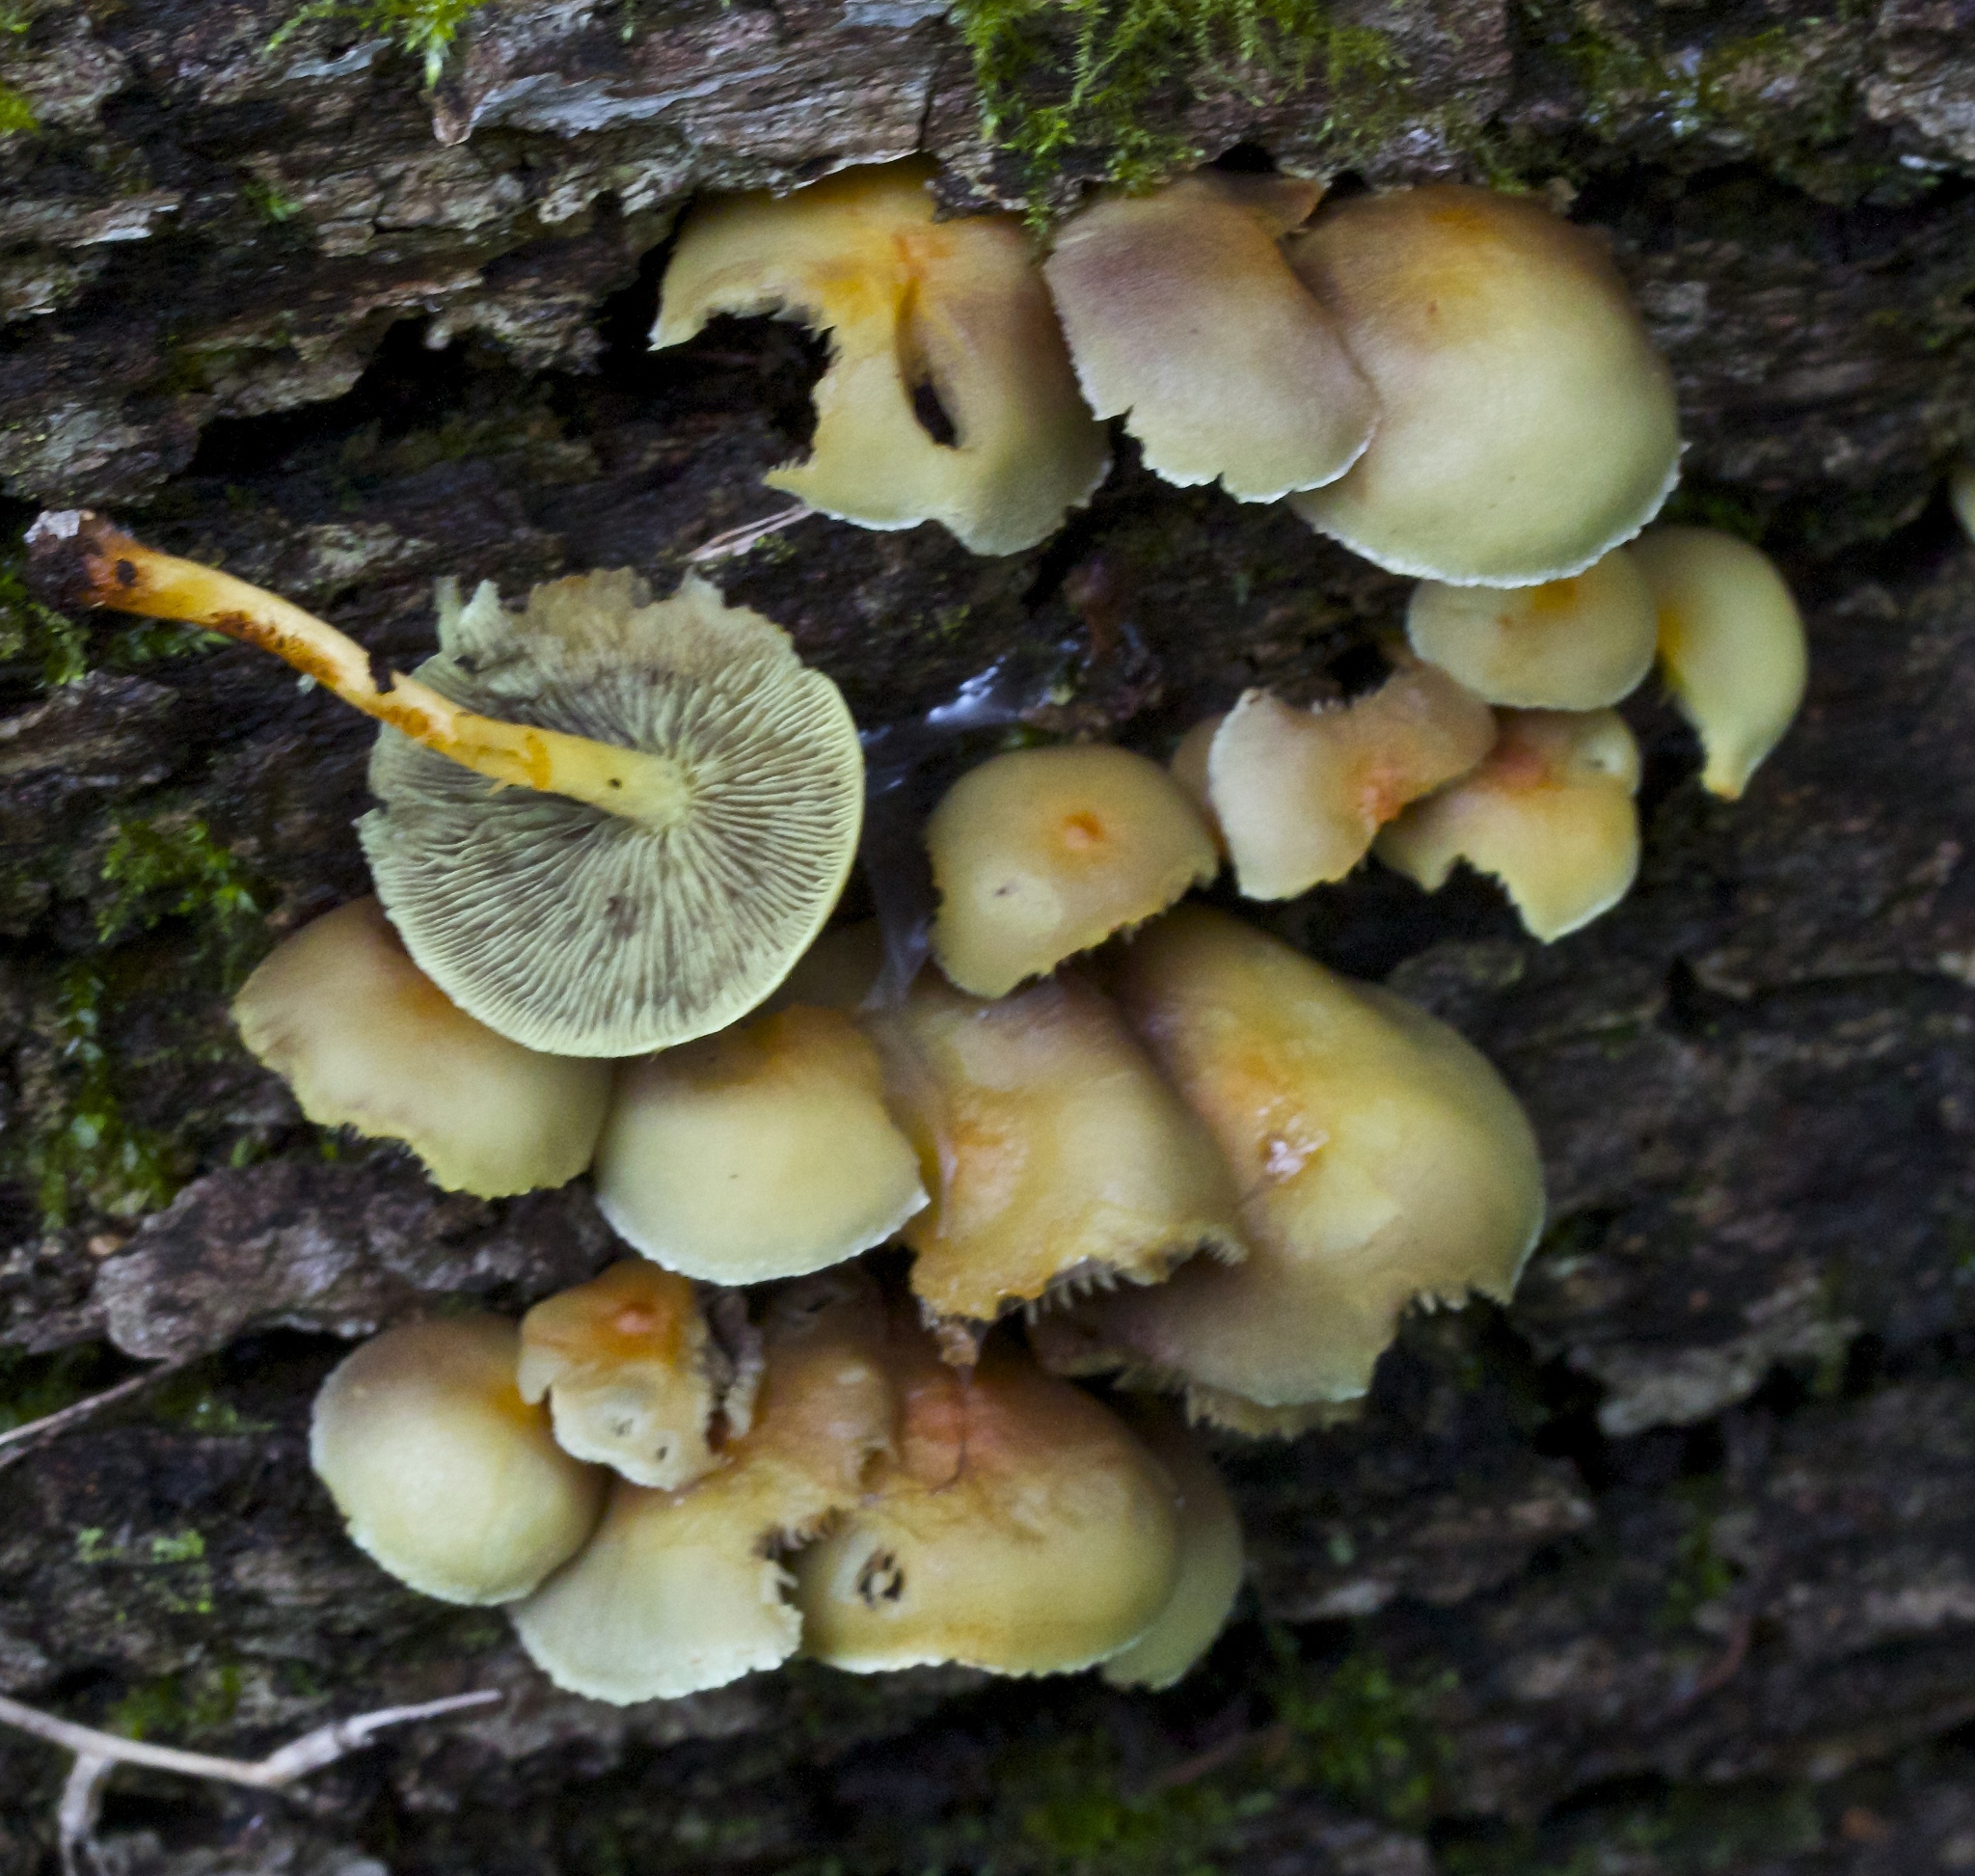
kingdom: Fungi
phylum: Basidiomycota
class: Agaricomycetes
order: Agaricales
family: Strophariaceae
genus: Hypholoma
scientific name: Hypholoma fasciculare
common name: Sulphur tuft
